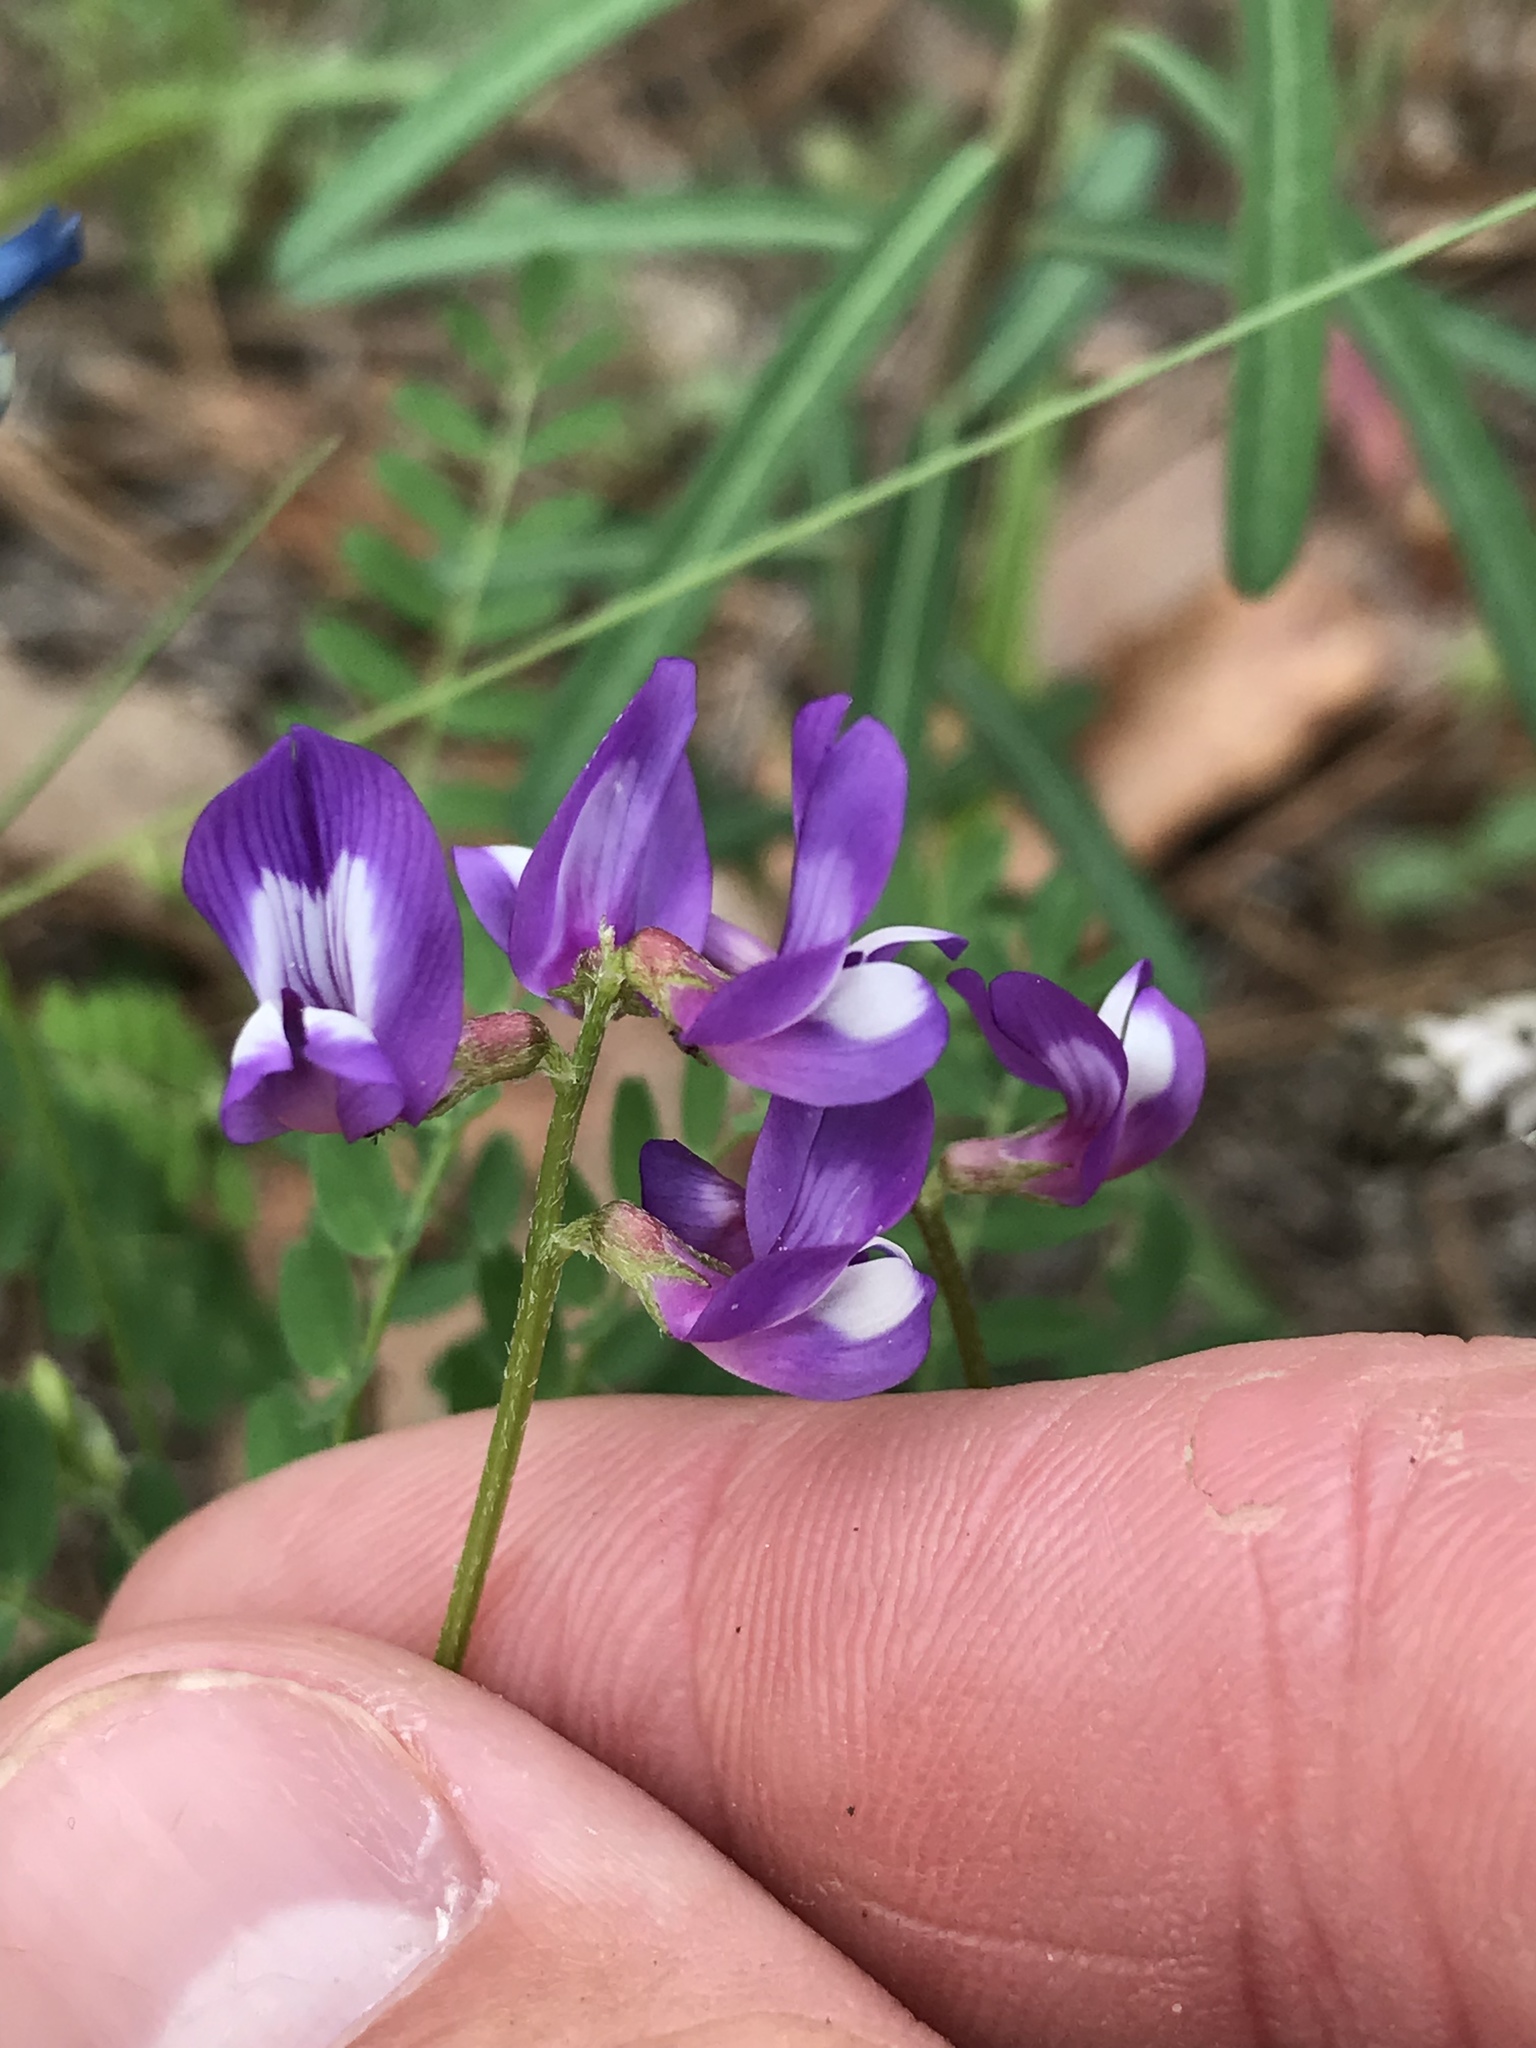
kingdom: Plantae
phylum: Tracheophyta
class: Magnoliopsida
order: Fabales
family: Fabaceae
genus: Astragalus
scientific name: Astragalus leptocarpus
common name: Bodkin milk-vetch
